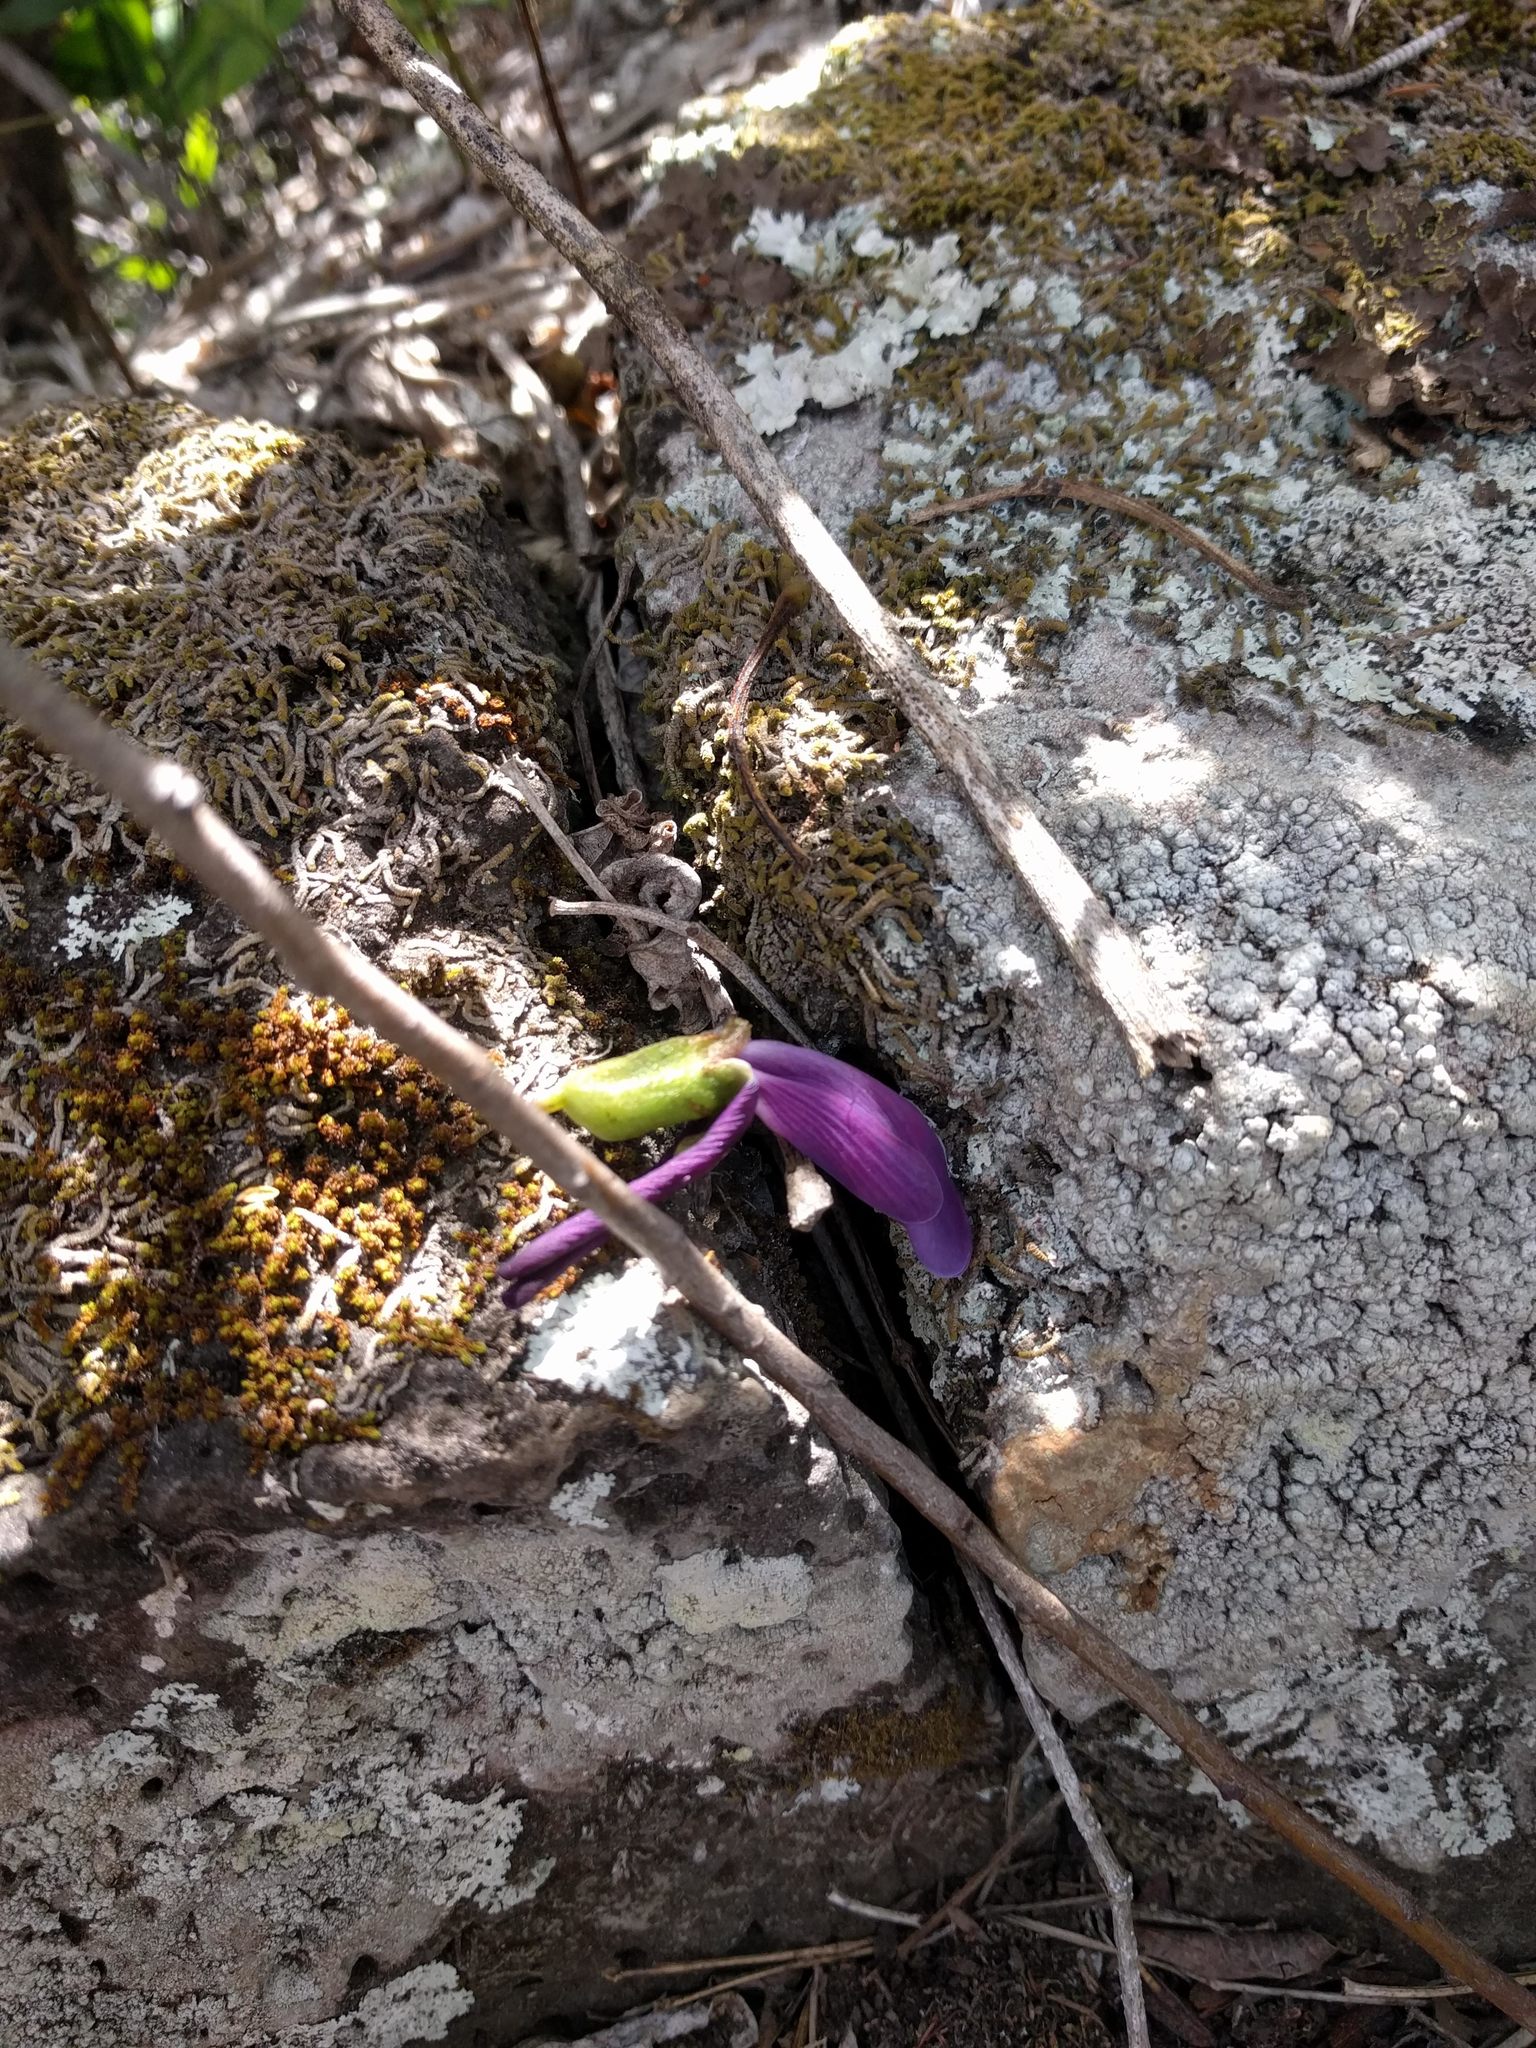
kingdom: Plantae
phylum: Tracheophyta
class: Magnoliopsida
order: Fabales
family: Fabaceae
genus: Canavalia
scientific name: Canavalia galeata
